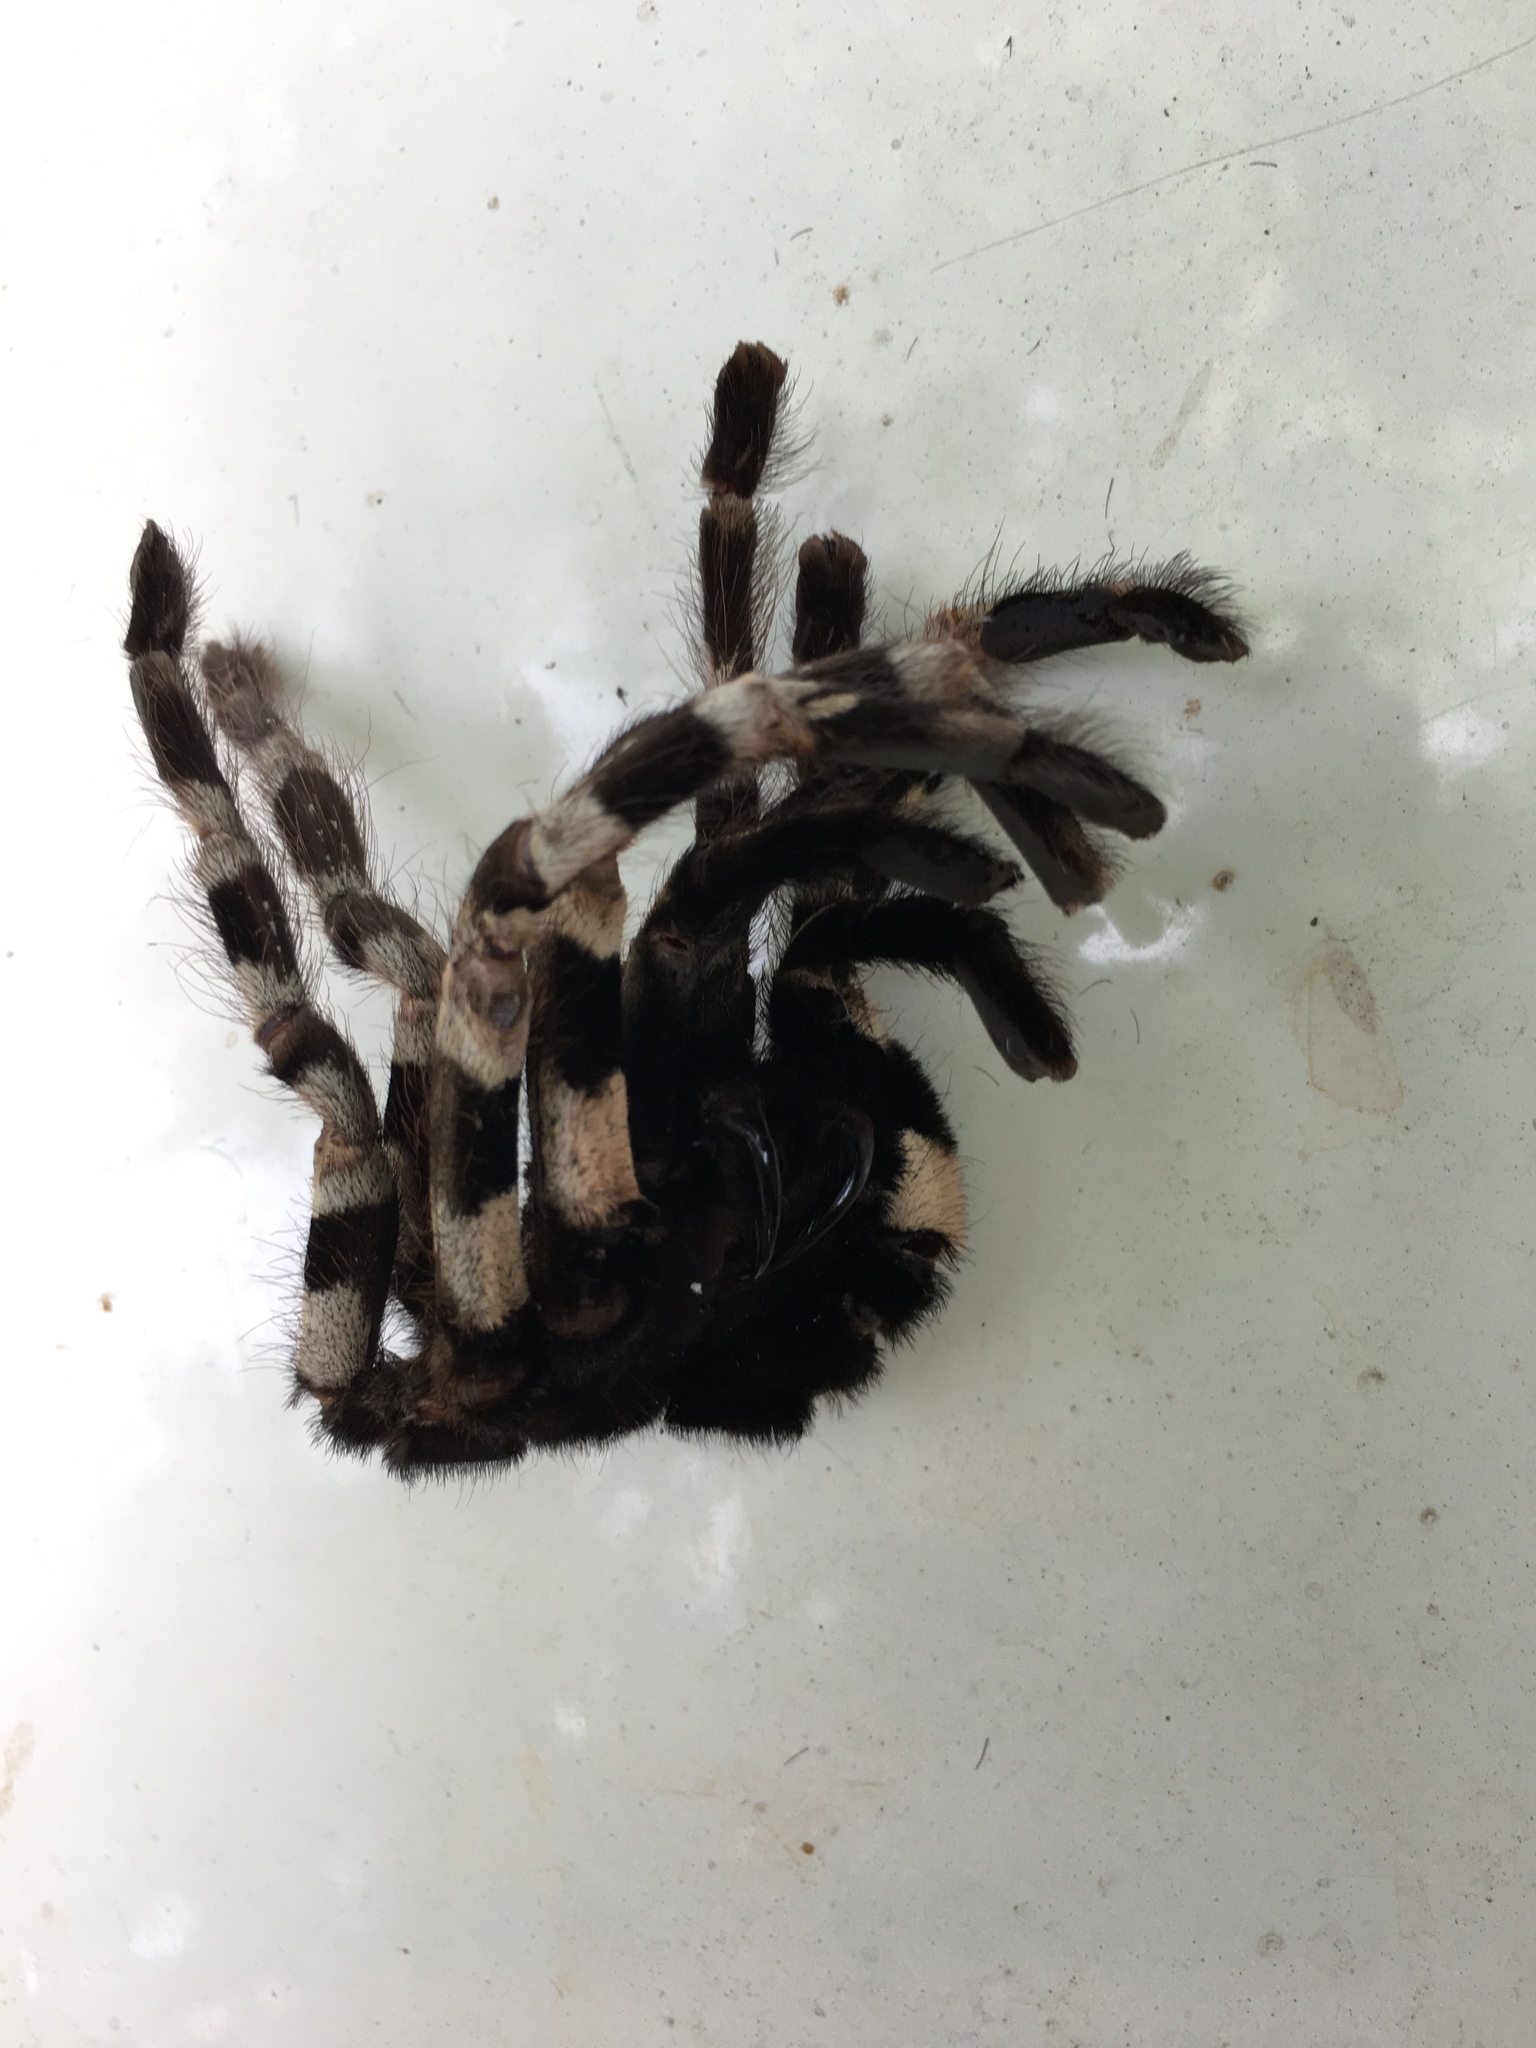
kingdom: Animalia
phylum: Arthropoda
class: Arachnida
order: Araneae
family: Theraphosidae
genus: Poecilotheria
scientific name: Poecilotheria tigrinawesseli
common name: Anantagiri’s parachute spider
